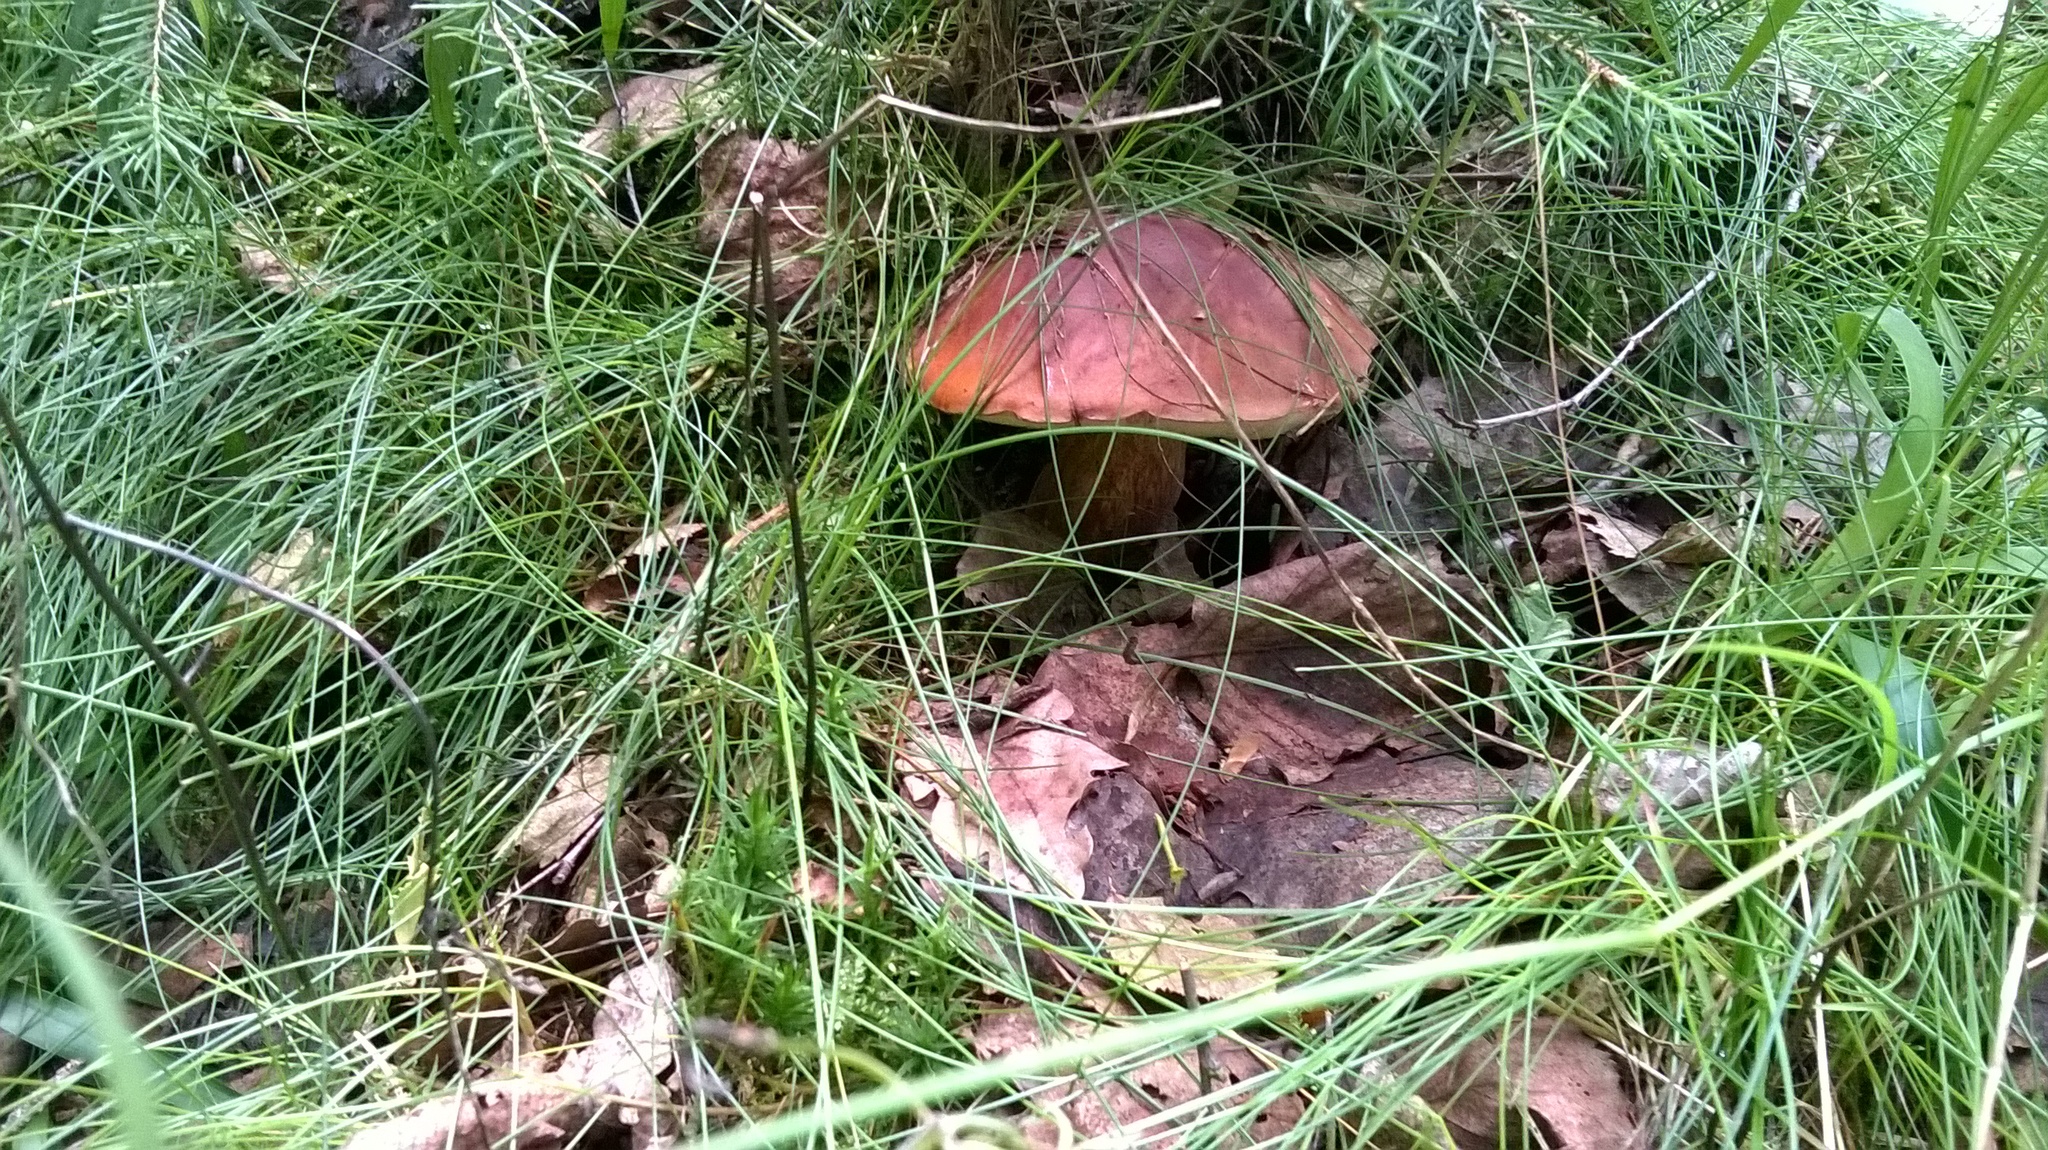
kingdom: Fungi
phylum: Basidiomycota
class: Agaricomycetes
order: Boletales
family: Boletaceae
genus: Boletus
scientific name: Boletus reticulatus
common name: Summer bolete
